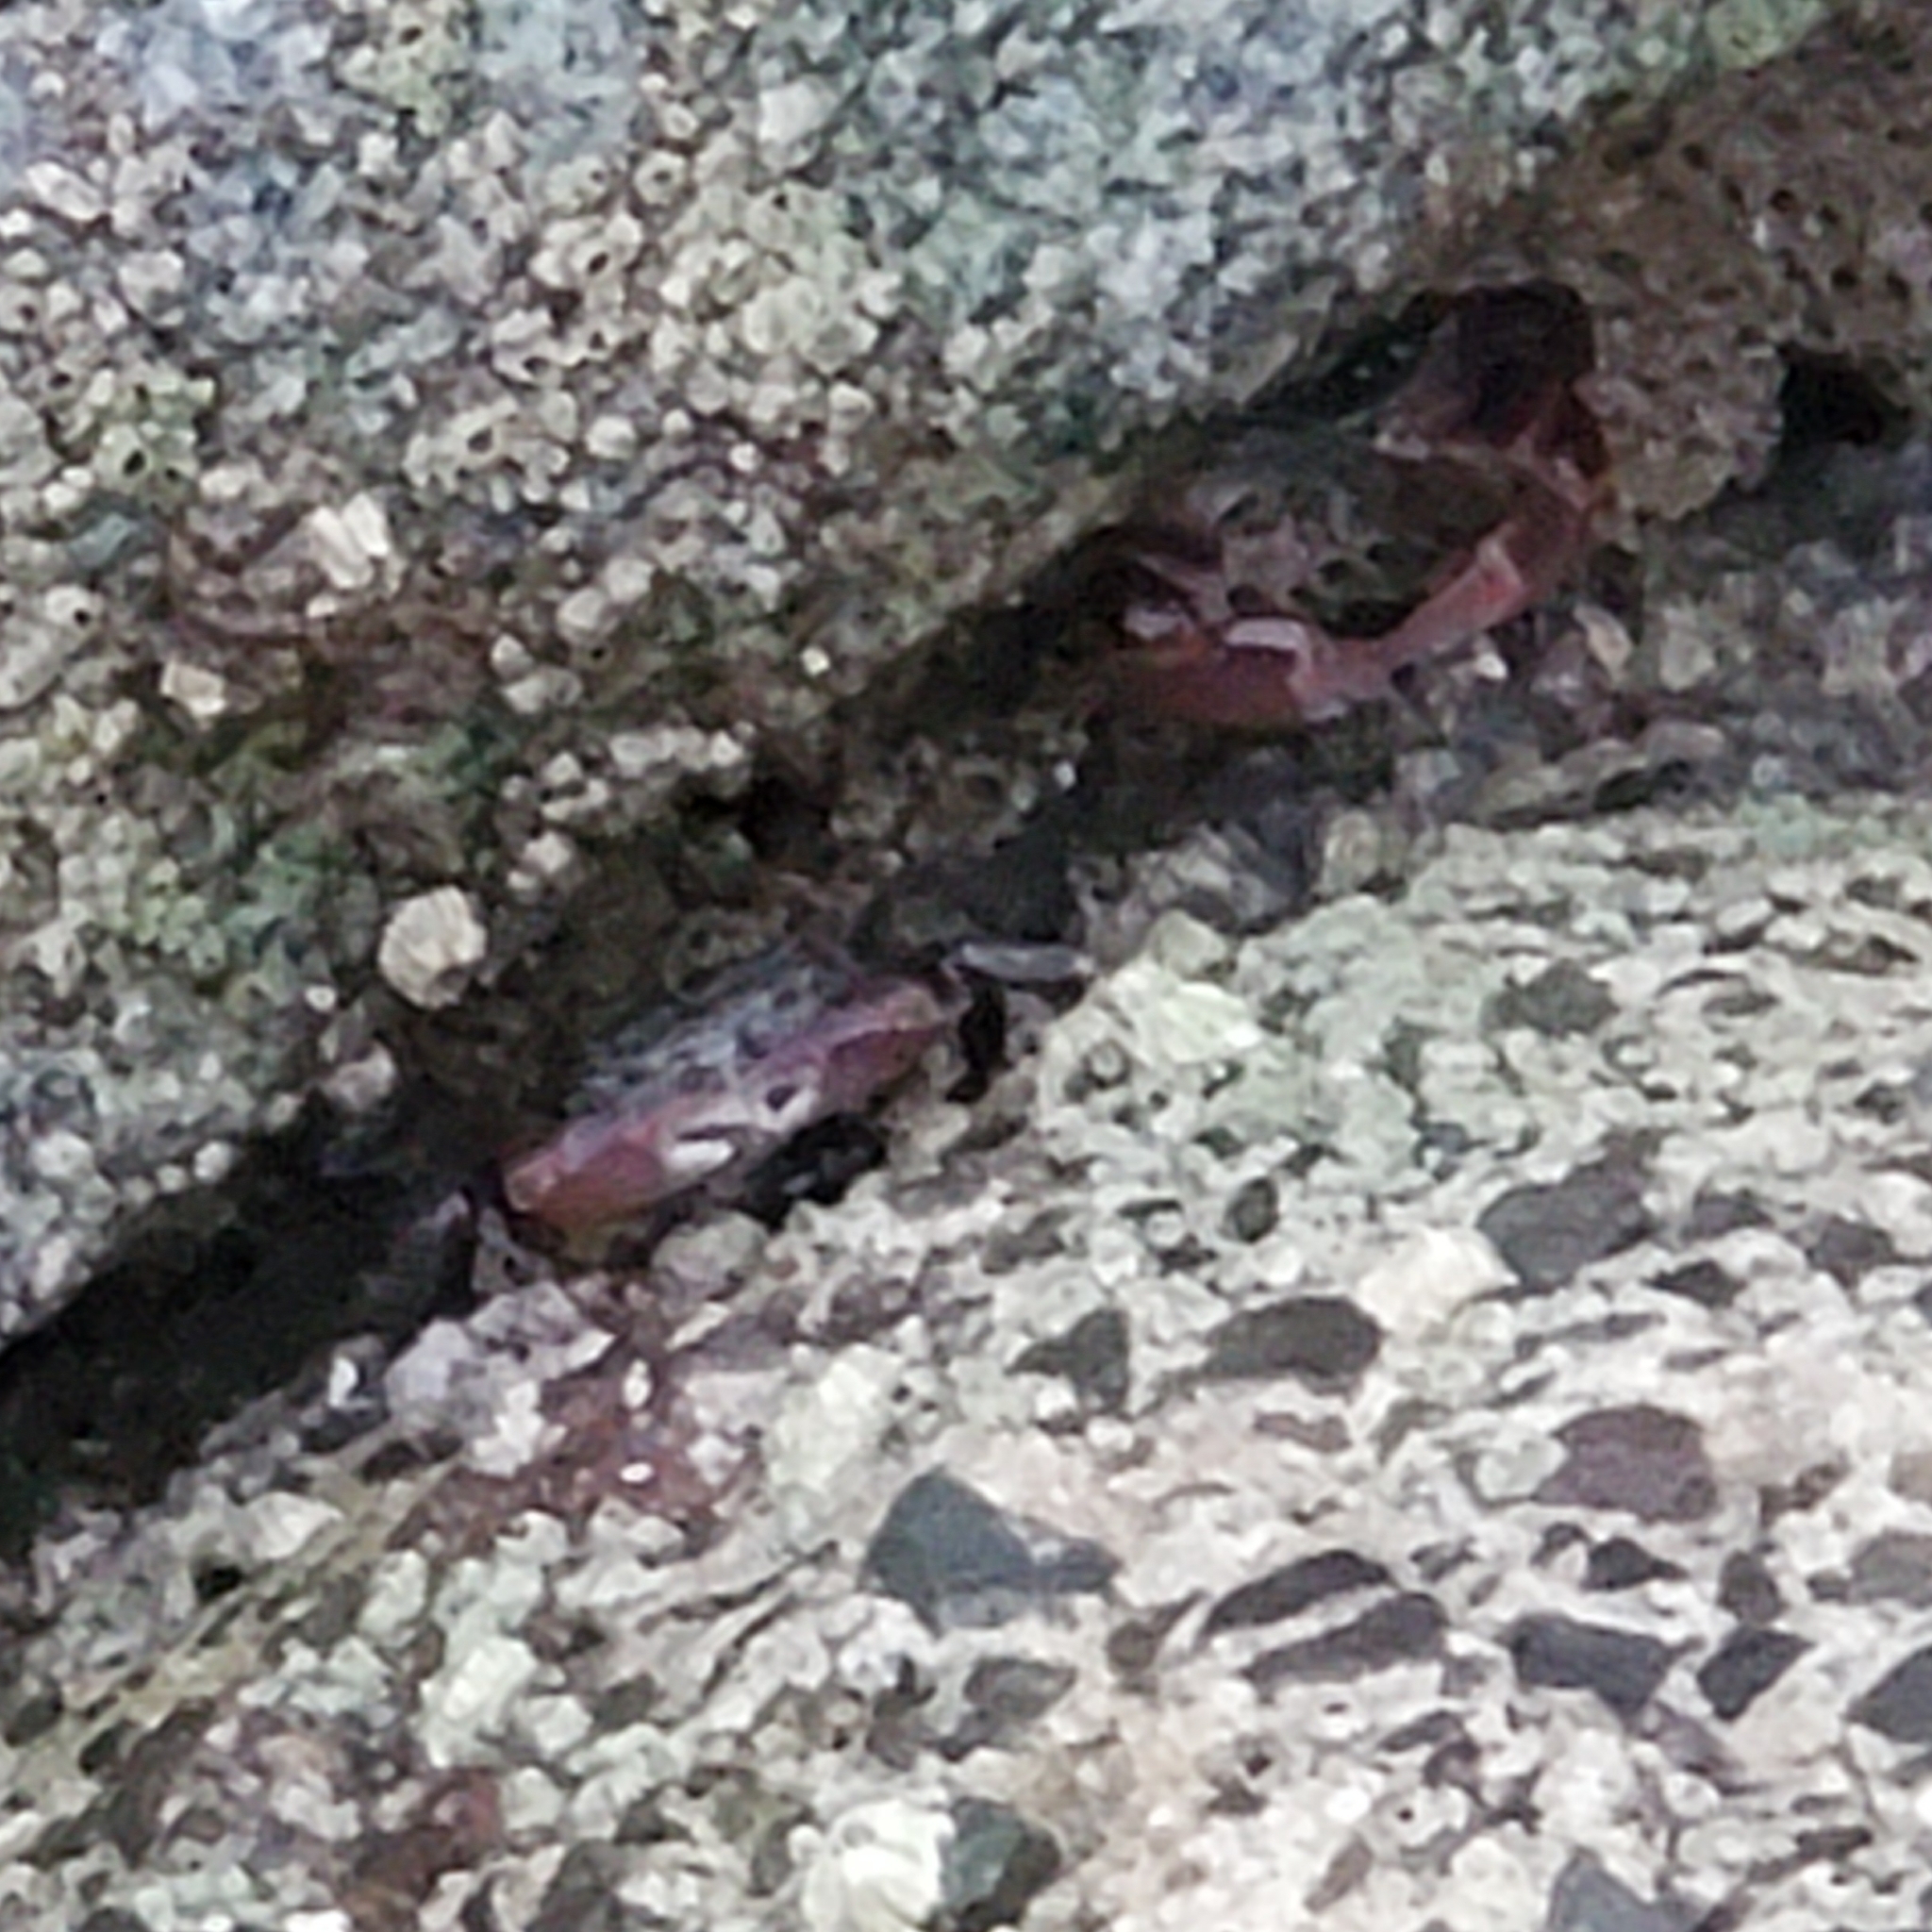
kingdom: Animalia
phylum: Arthropoda
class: Malacostraca
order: Decapoda
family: Grapsidae
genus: Pachygrapsus
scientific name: Pachygrapsus crassipes
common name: Striped shore crab
